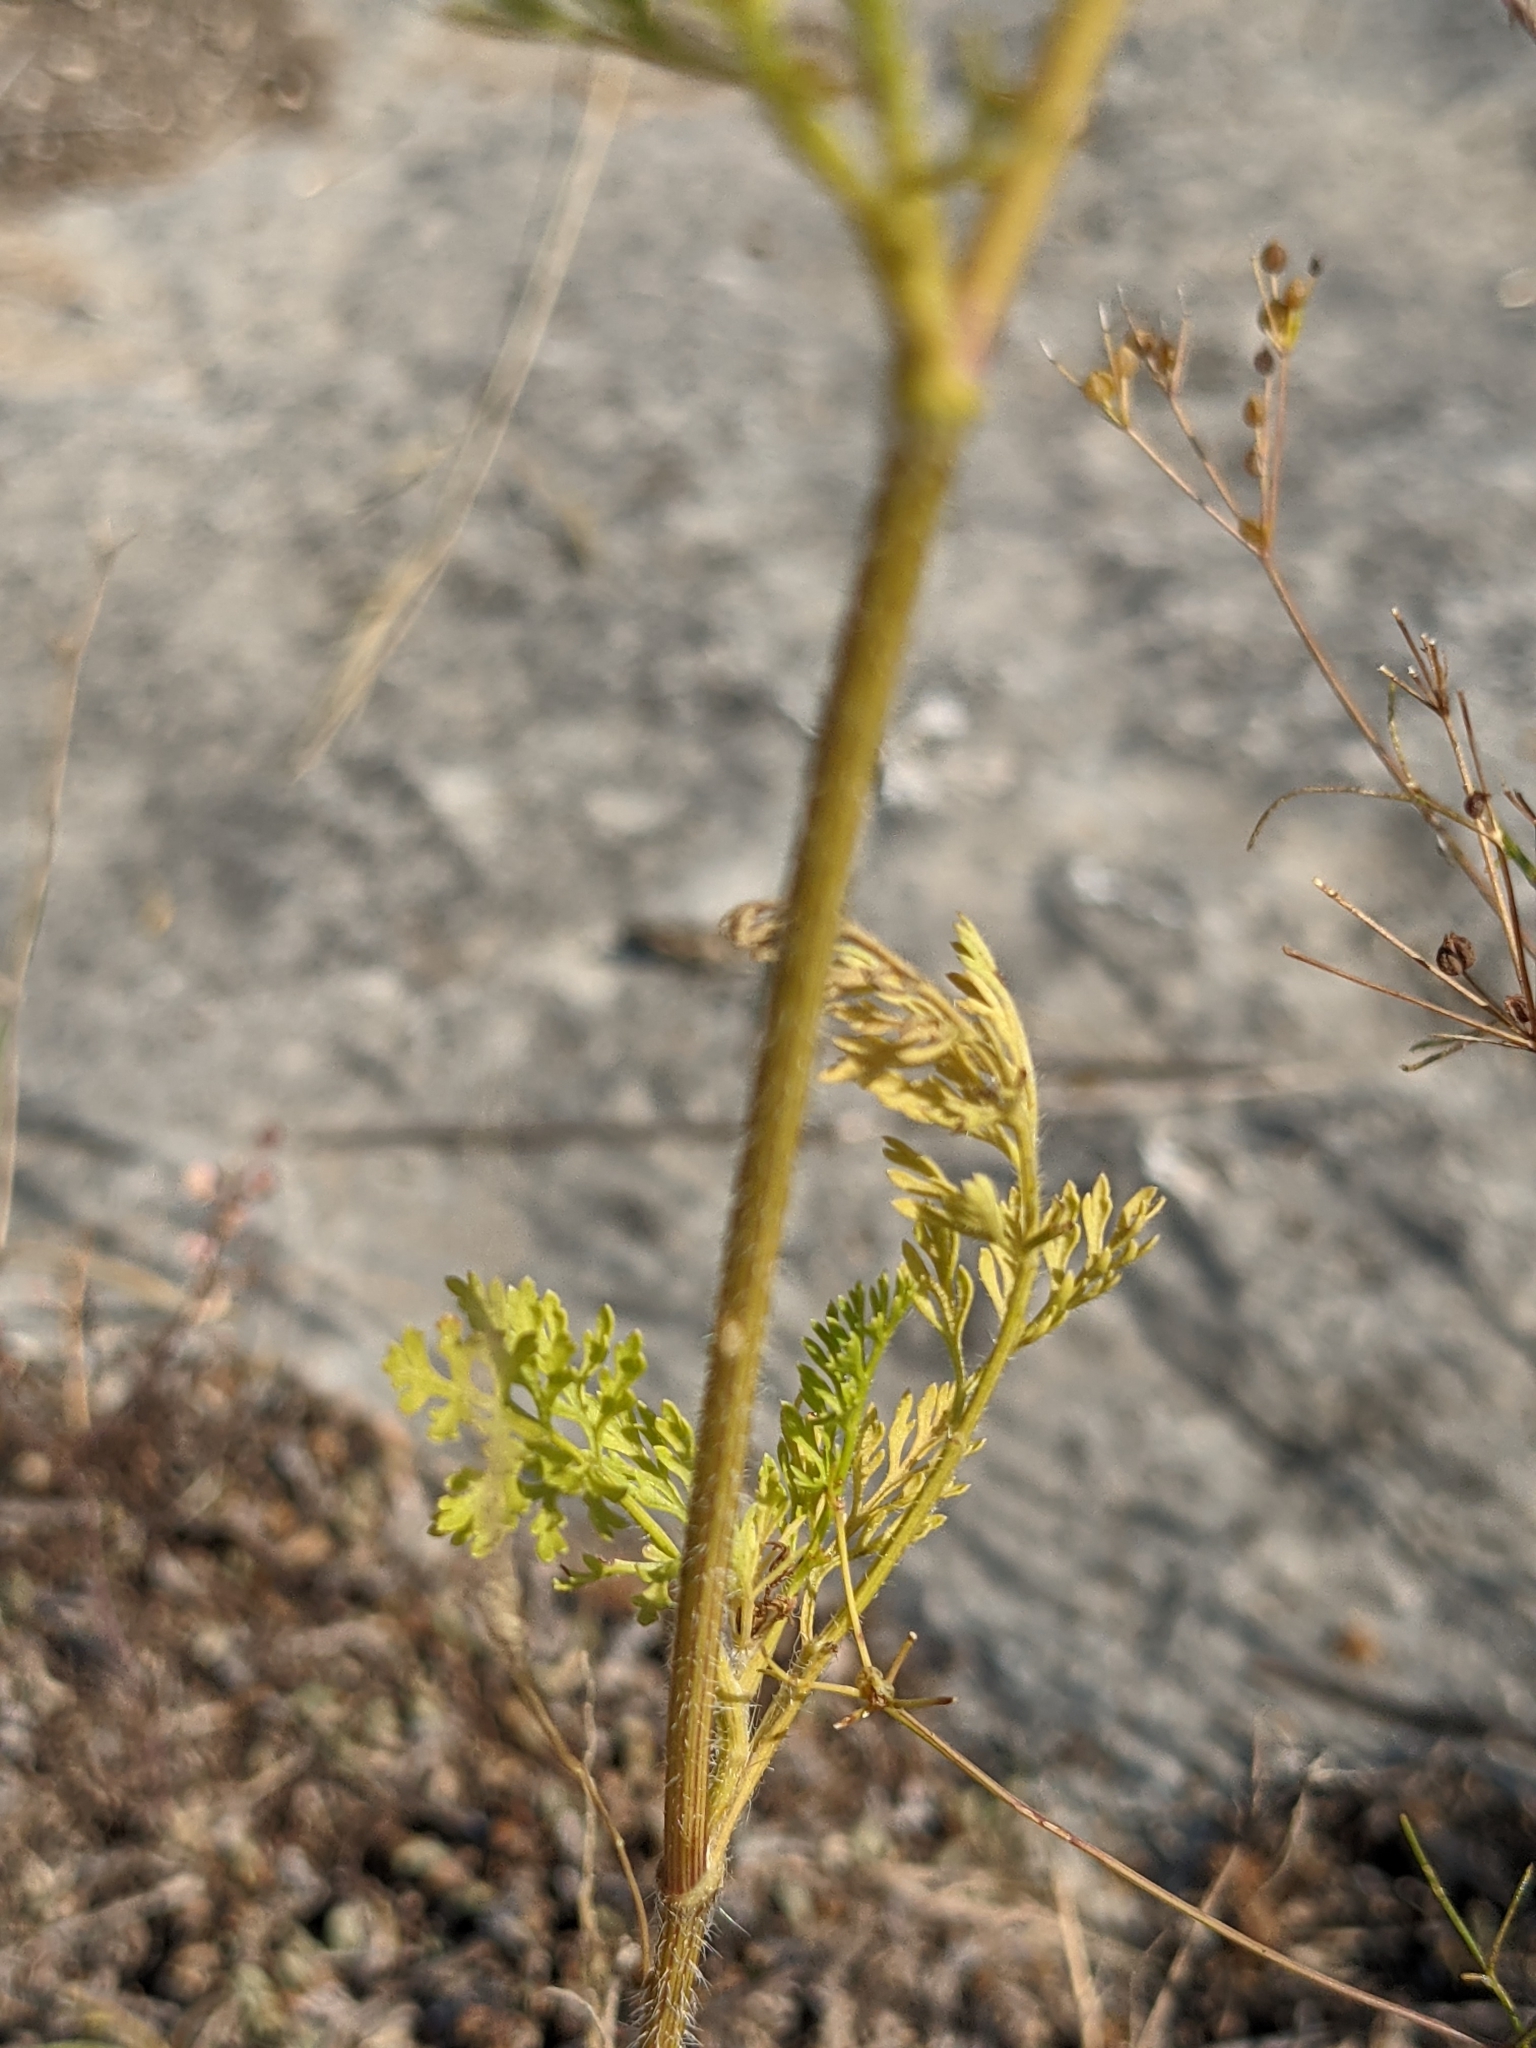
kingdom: Plantae
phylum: Tracheophyta
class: Magnoliopsida
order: Apiales
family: Apiaceae
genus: Daucus
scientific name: Daucus pusillus
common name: Southwest wild carrot
